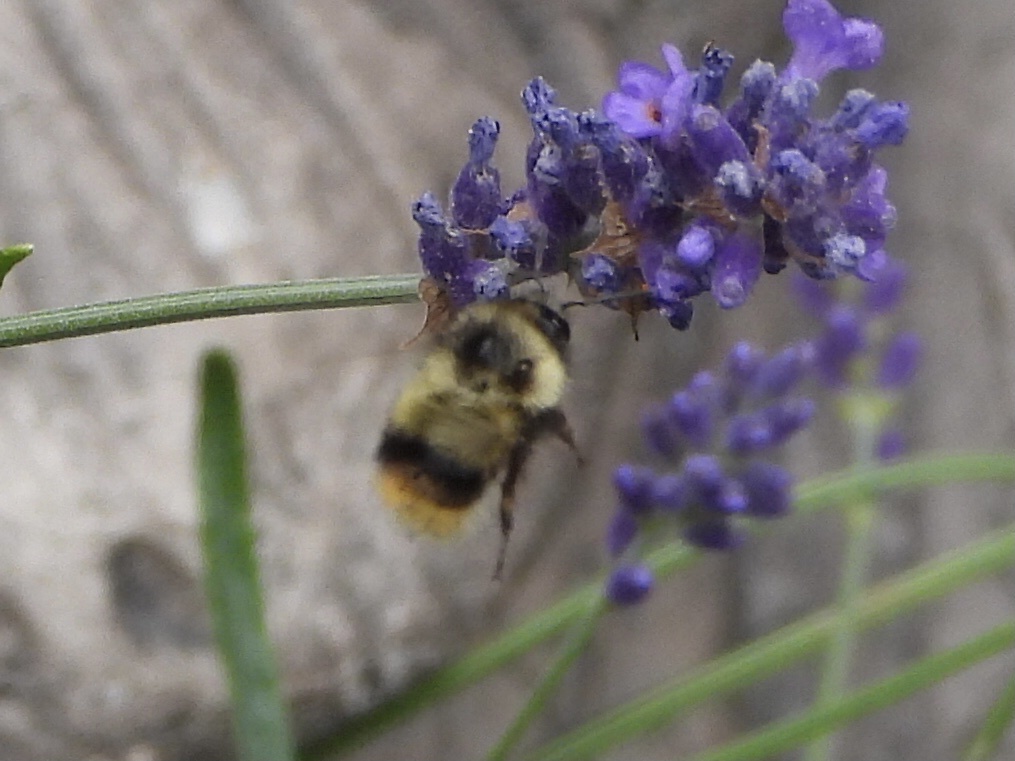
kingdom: Animalia
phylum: Arthropoda
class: Insecta
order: Hymenoptera
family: Apidae
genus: Bombus
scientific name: Bombus mixtus
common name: Fuzzy-horned bumble bee
